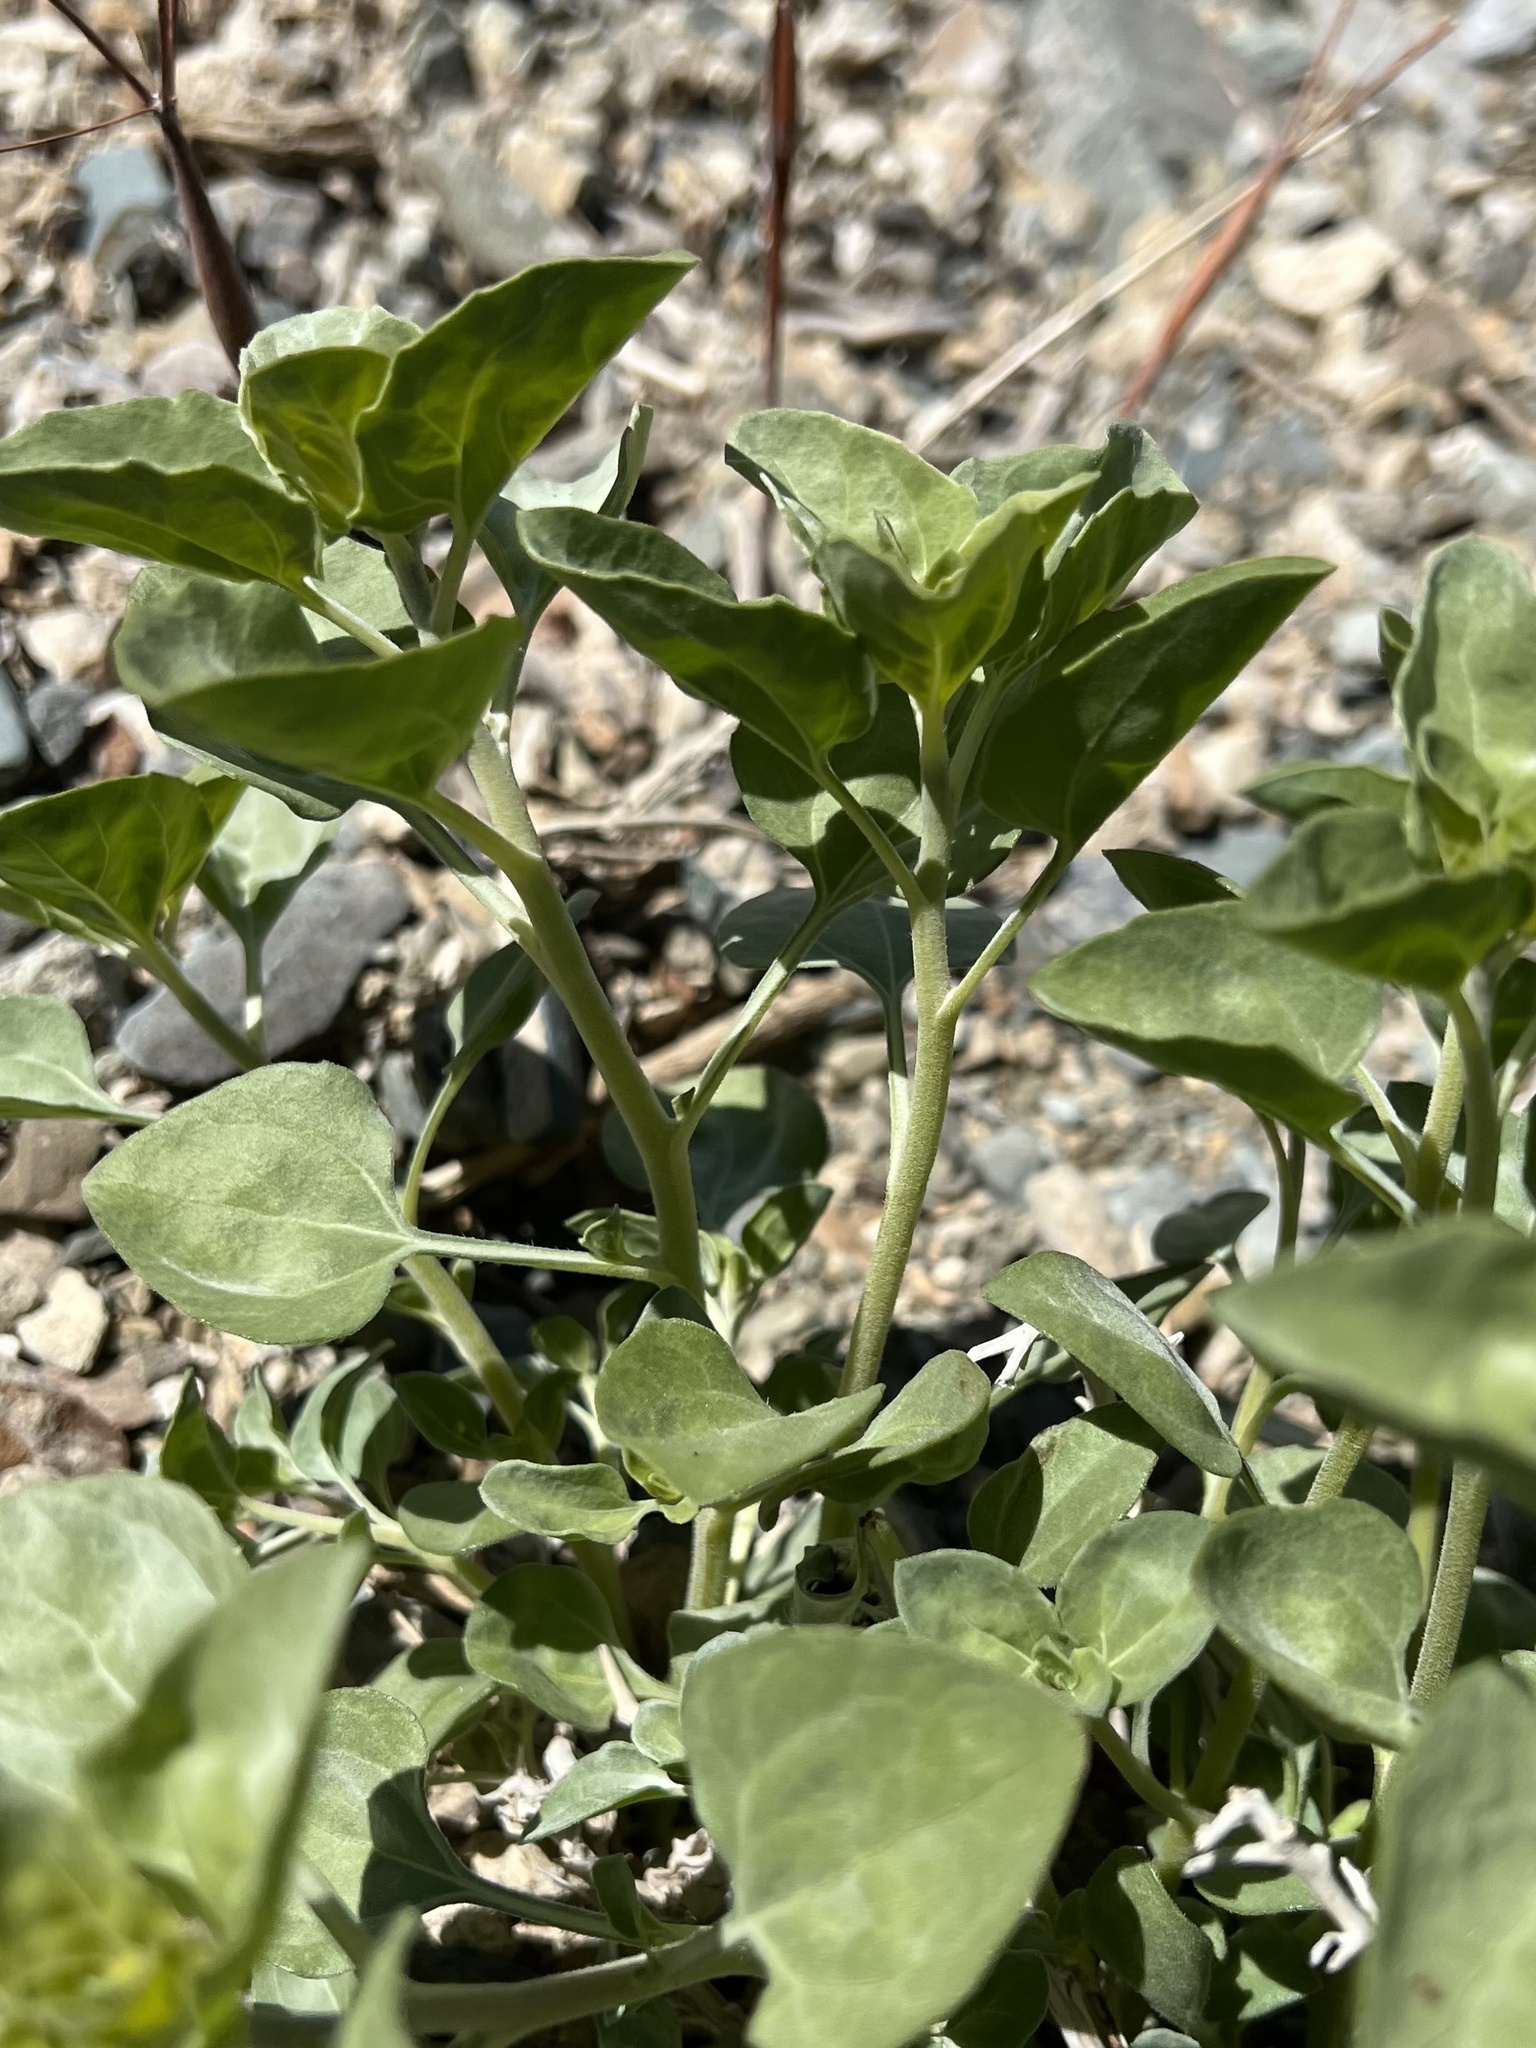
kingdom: Plantae
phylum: Tracheophyta
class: Magnoliopsida
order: Asterales
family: Asteraceae
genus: Encelia
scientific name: Encelia actoni
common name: Acton encelia
